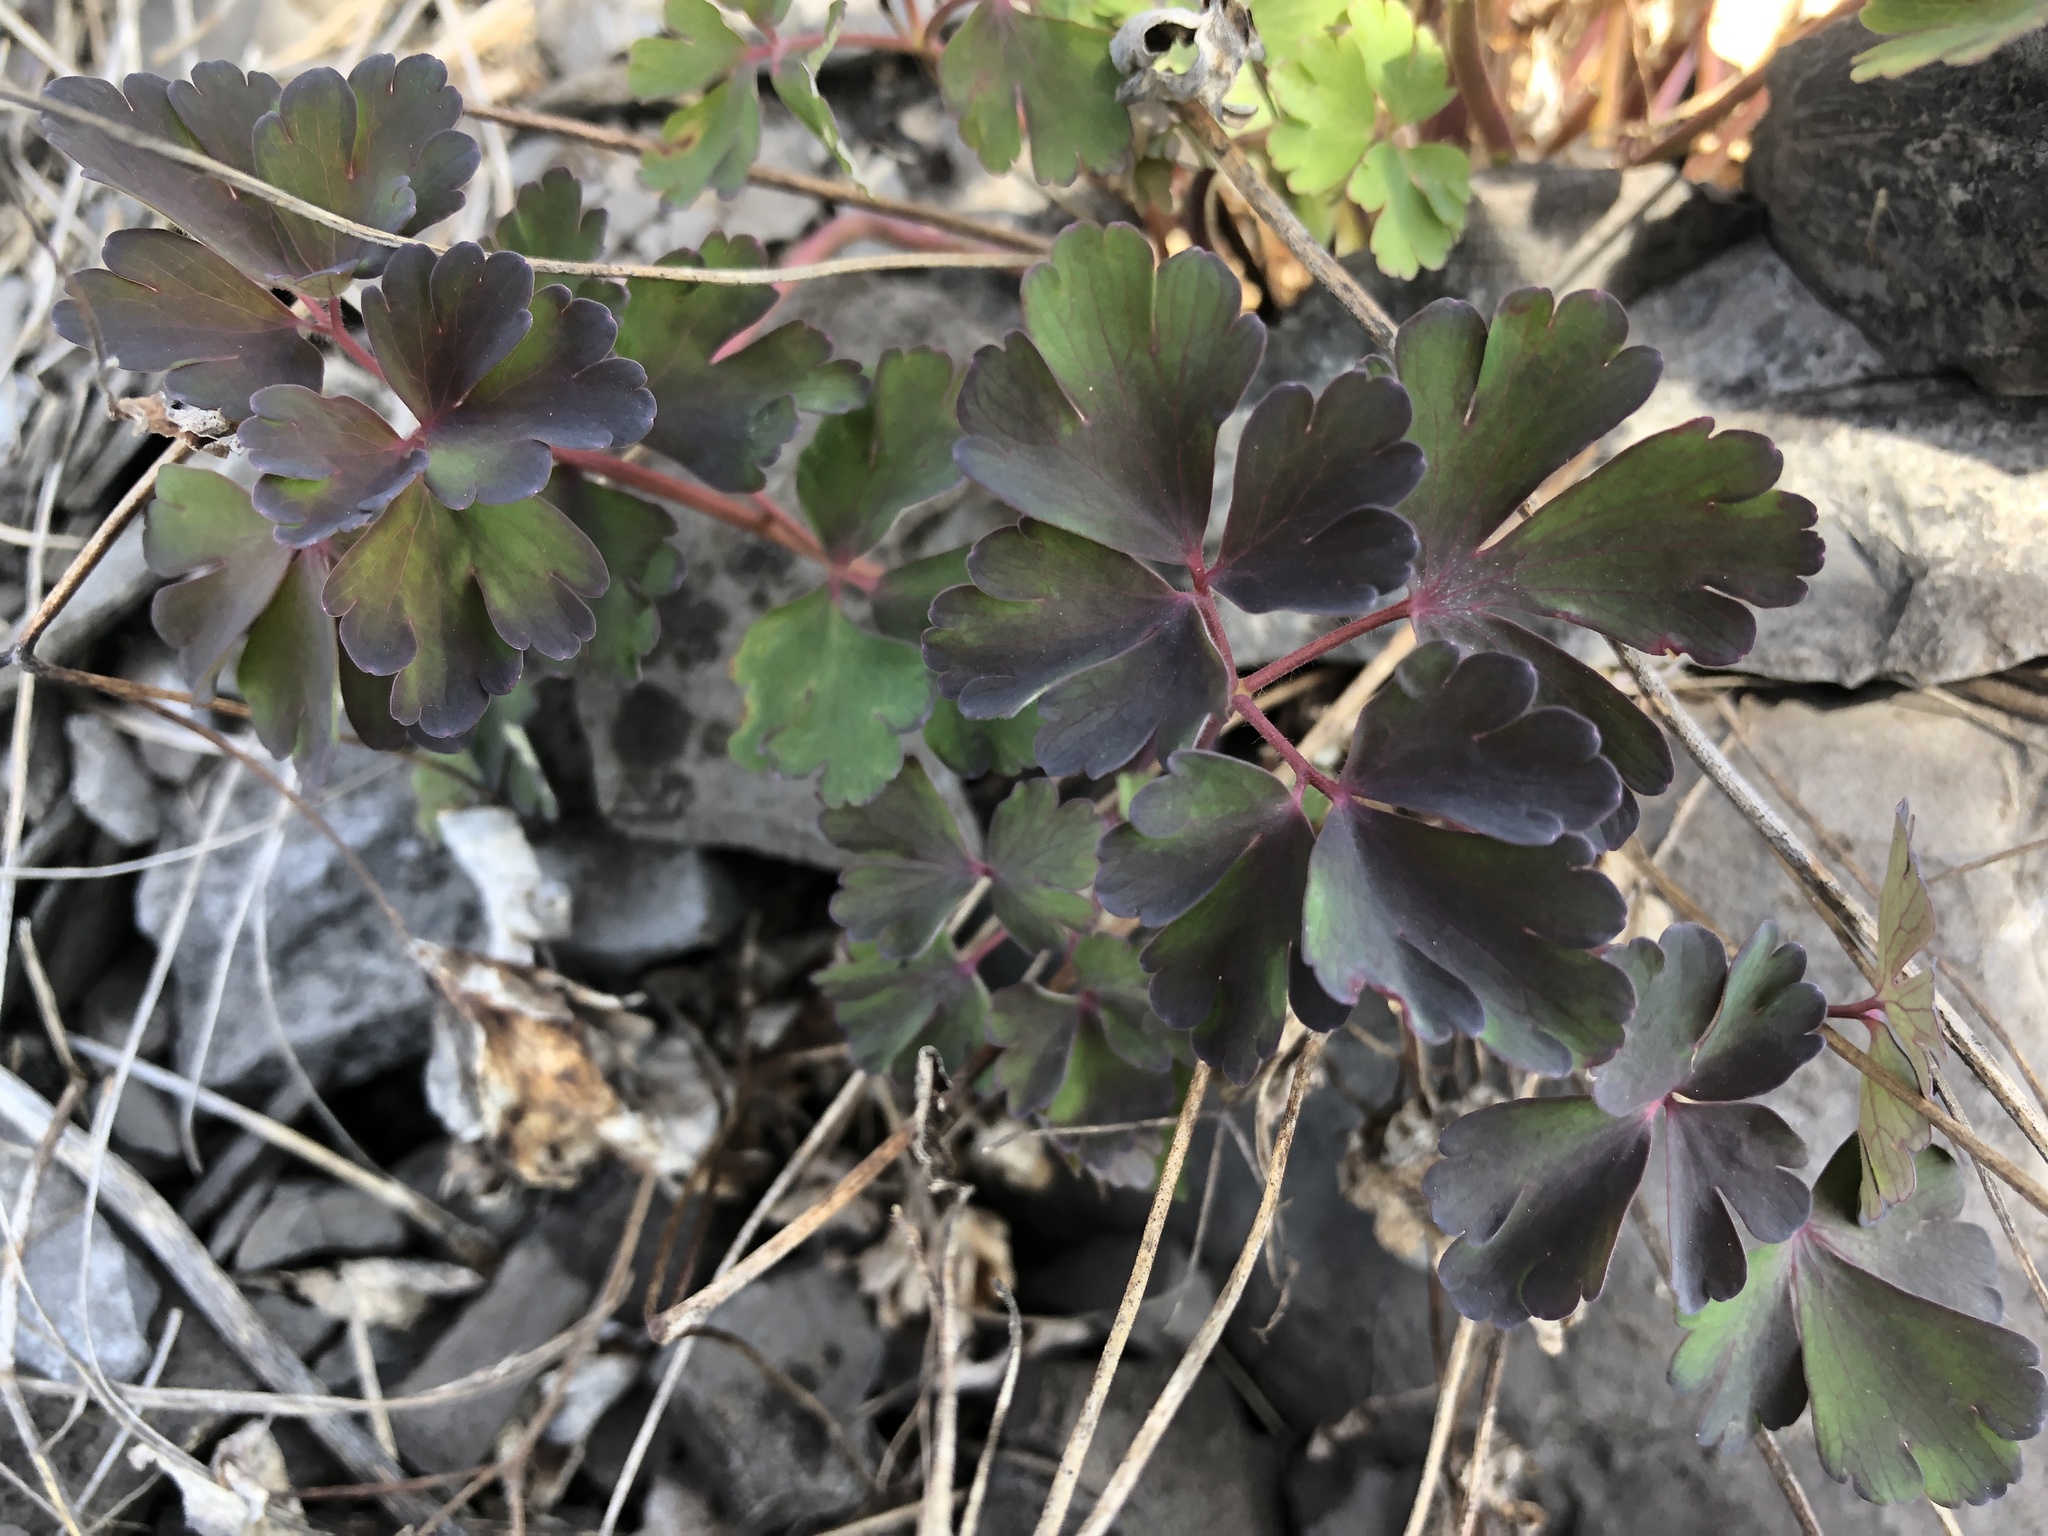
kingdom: Plantae
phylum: Tracheophyta
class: Magnoliopsida
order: Ranunculales
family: Ranunculaceae
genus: Aquilegia
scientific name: Aquilegia canadensis
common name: American columbine
